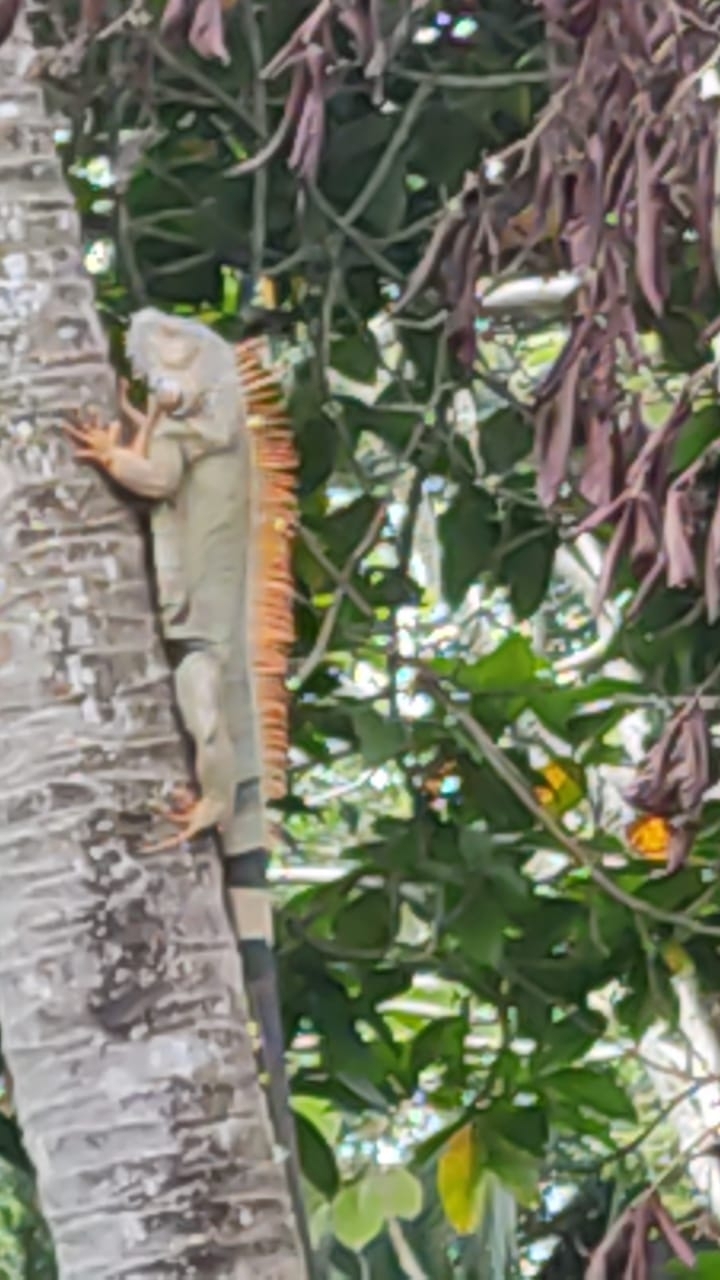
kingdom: Animalia
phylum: Chordata
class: Squamata
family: Iguanidae
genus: Iguana
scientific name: Iguana iguana
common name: Green iguana
